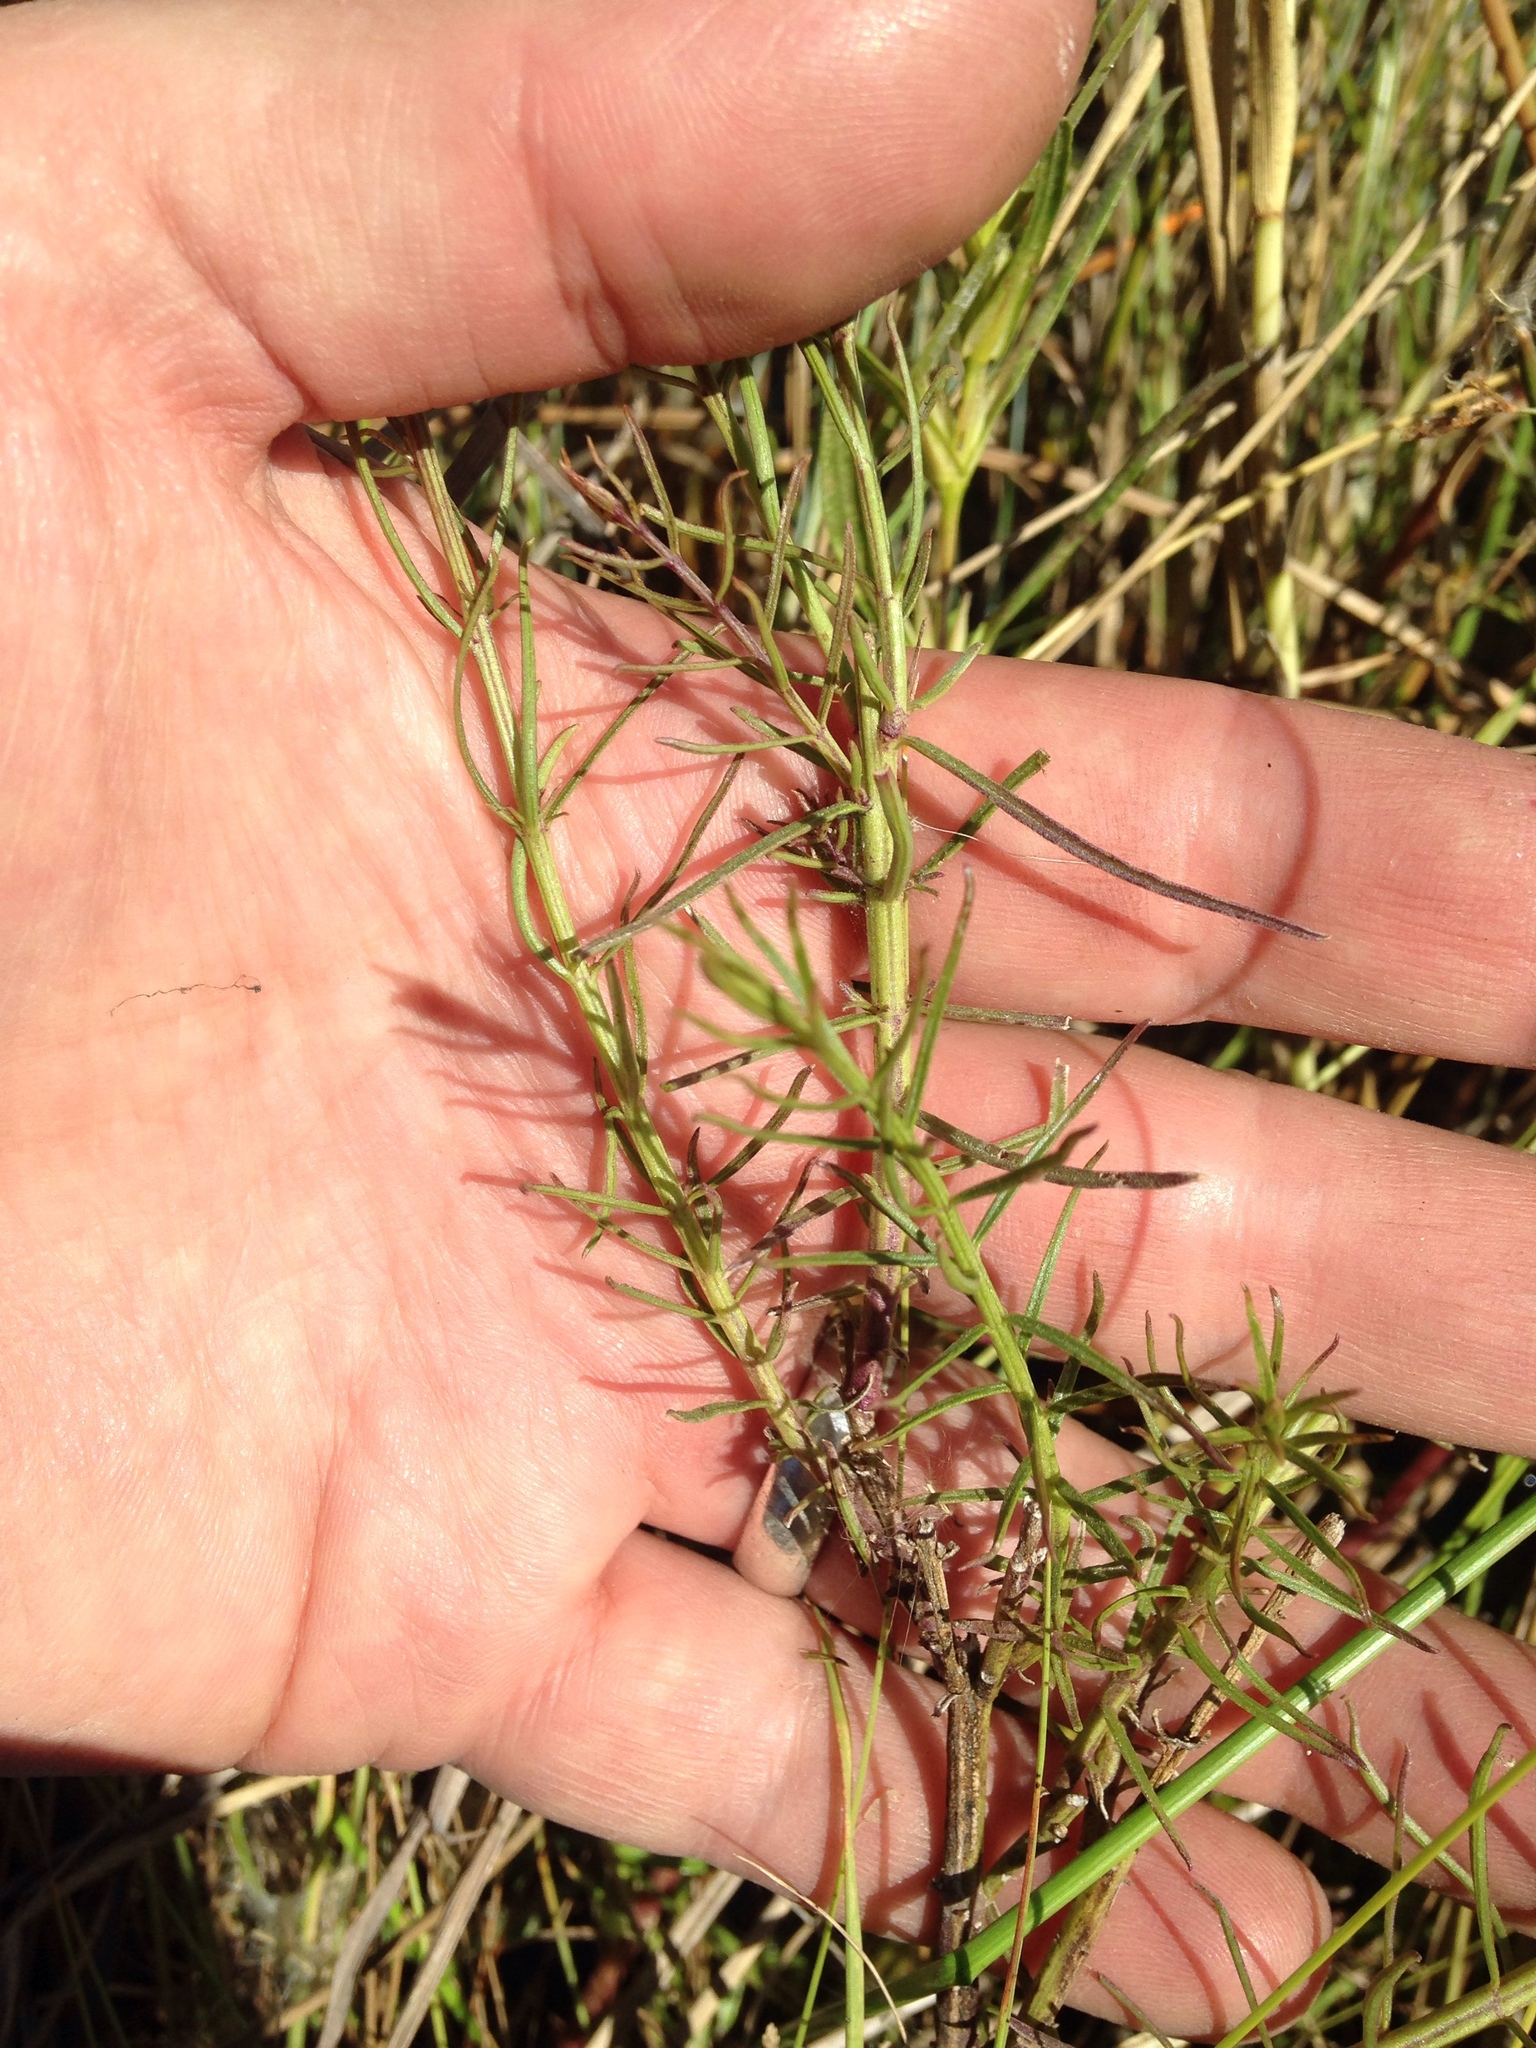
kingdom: Plantae
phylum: Tracheophyta
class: Magnoliopsida
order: Lamiales
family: Orobanchaceae
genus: Sopubia
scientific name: Sopubia mannii
